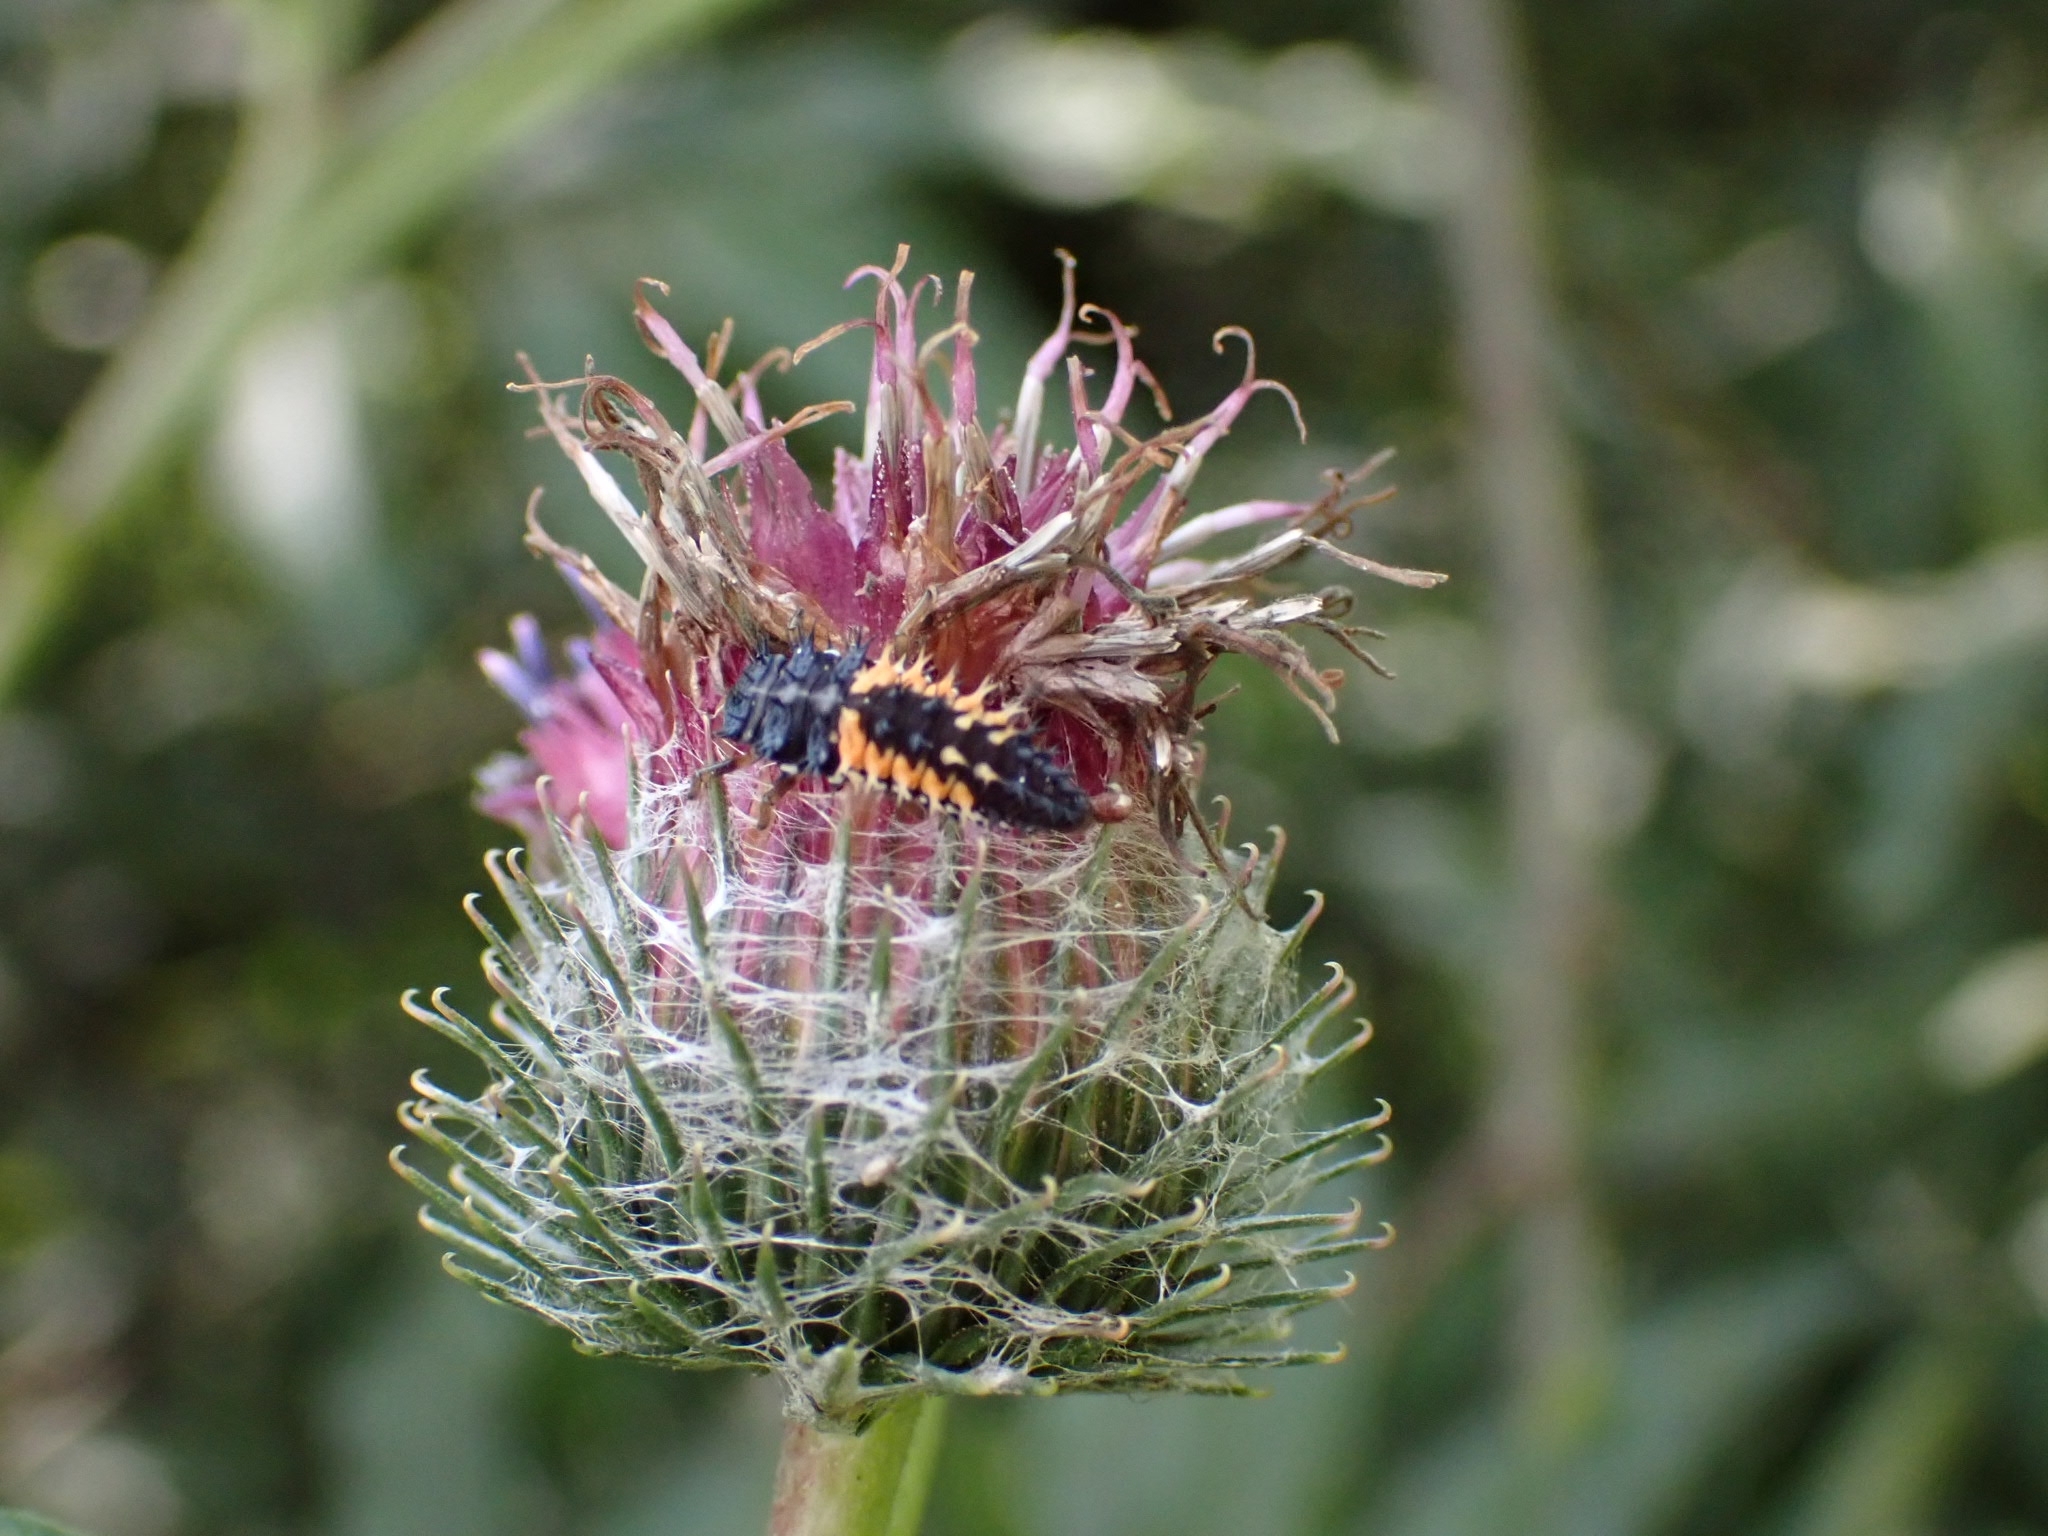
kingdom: Animalia
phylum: Arthropoda
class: Insecta
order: Coleoptera
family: Coccinellidae
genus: Harmonia
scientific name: Harmonia axyridis
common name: Harlequin ladybird
